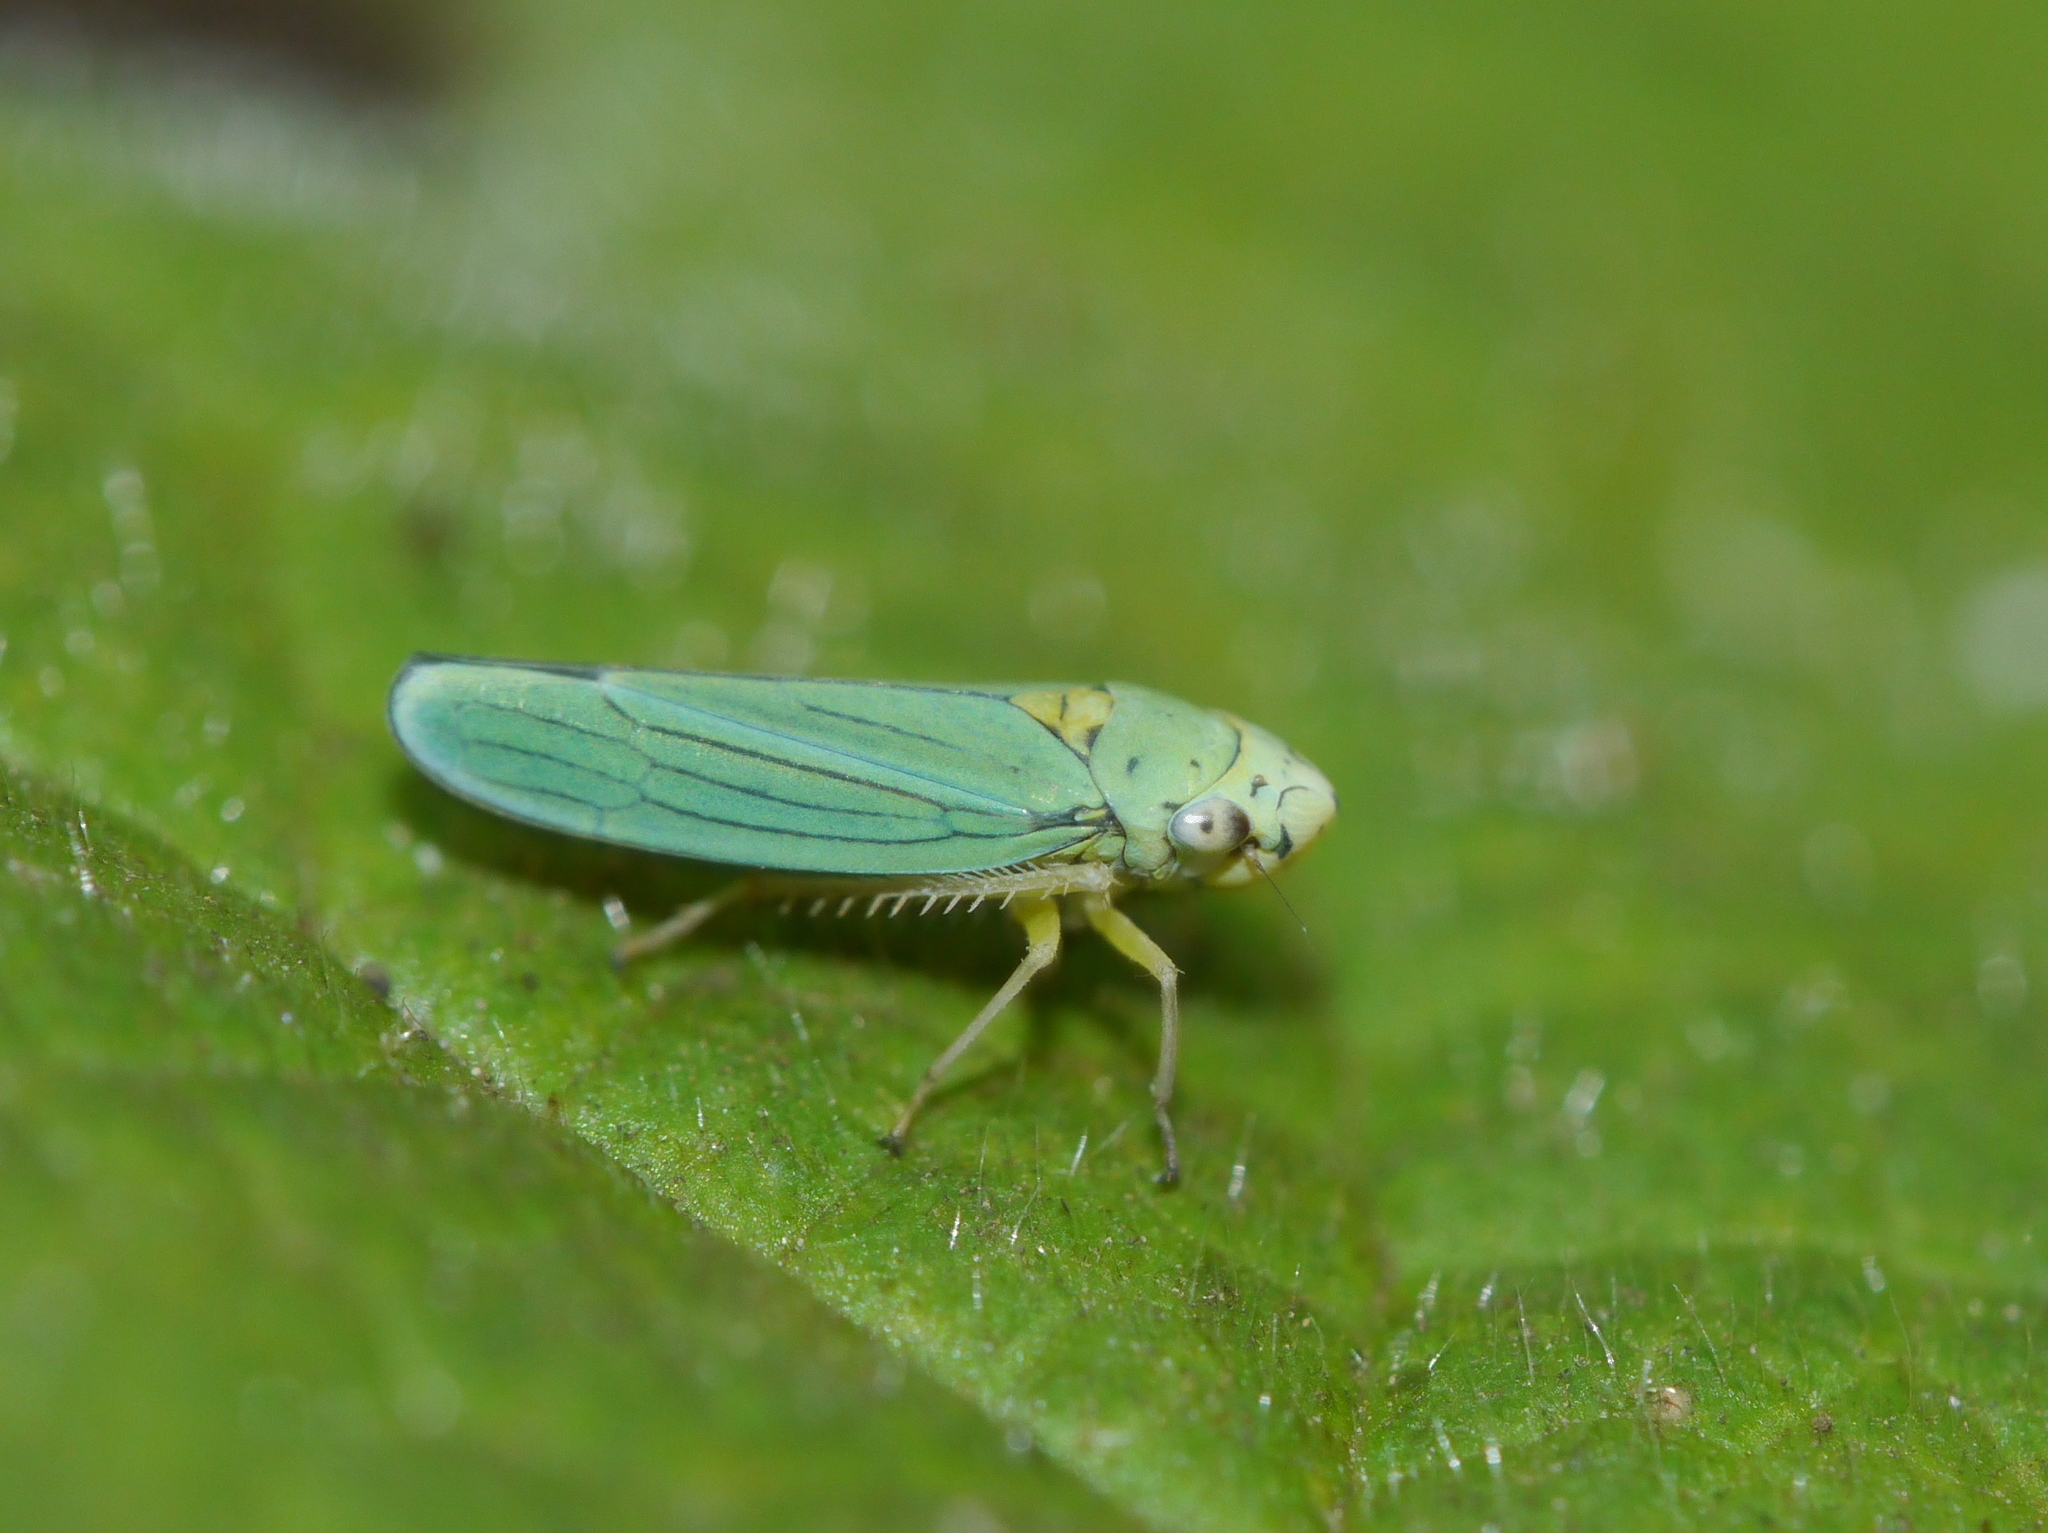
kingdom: Animalia
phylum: Arthropoda
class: Insecta
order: Hemiptera
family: Cicadellidae
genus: Graphocephala
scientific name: Graphocephala atropunctata
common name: Blue-green sharpshooter
